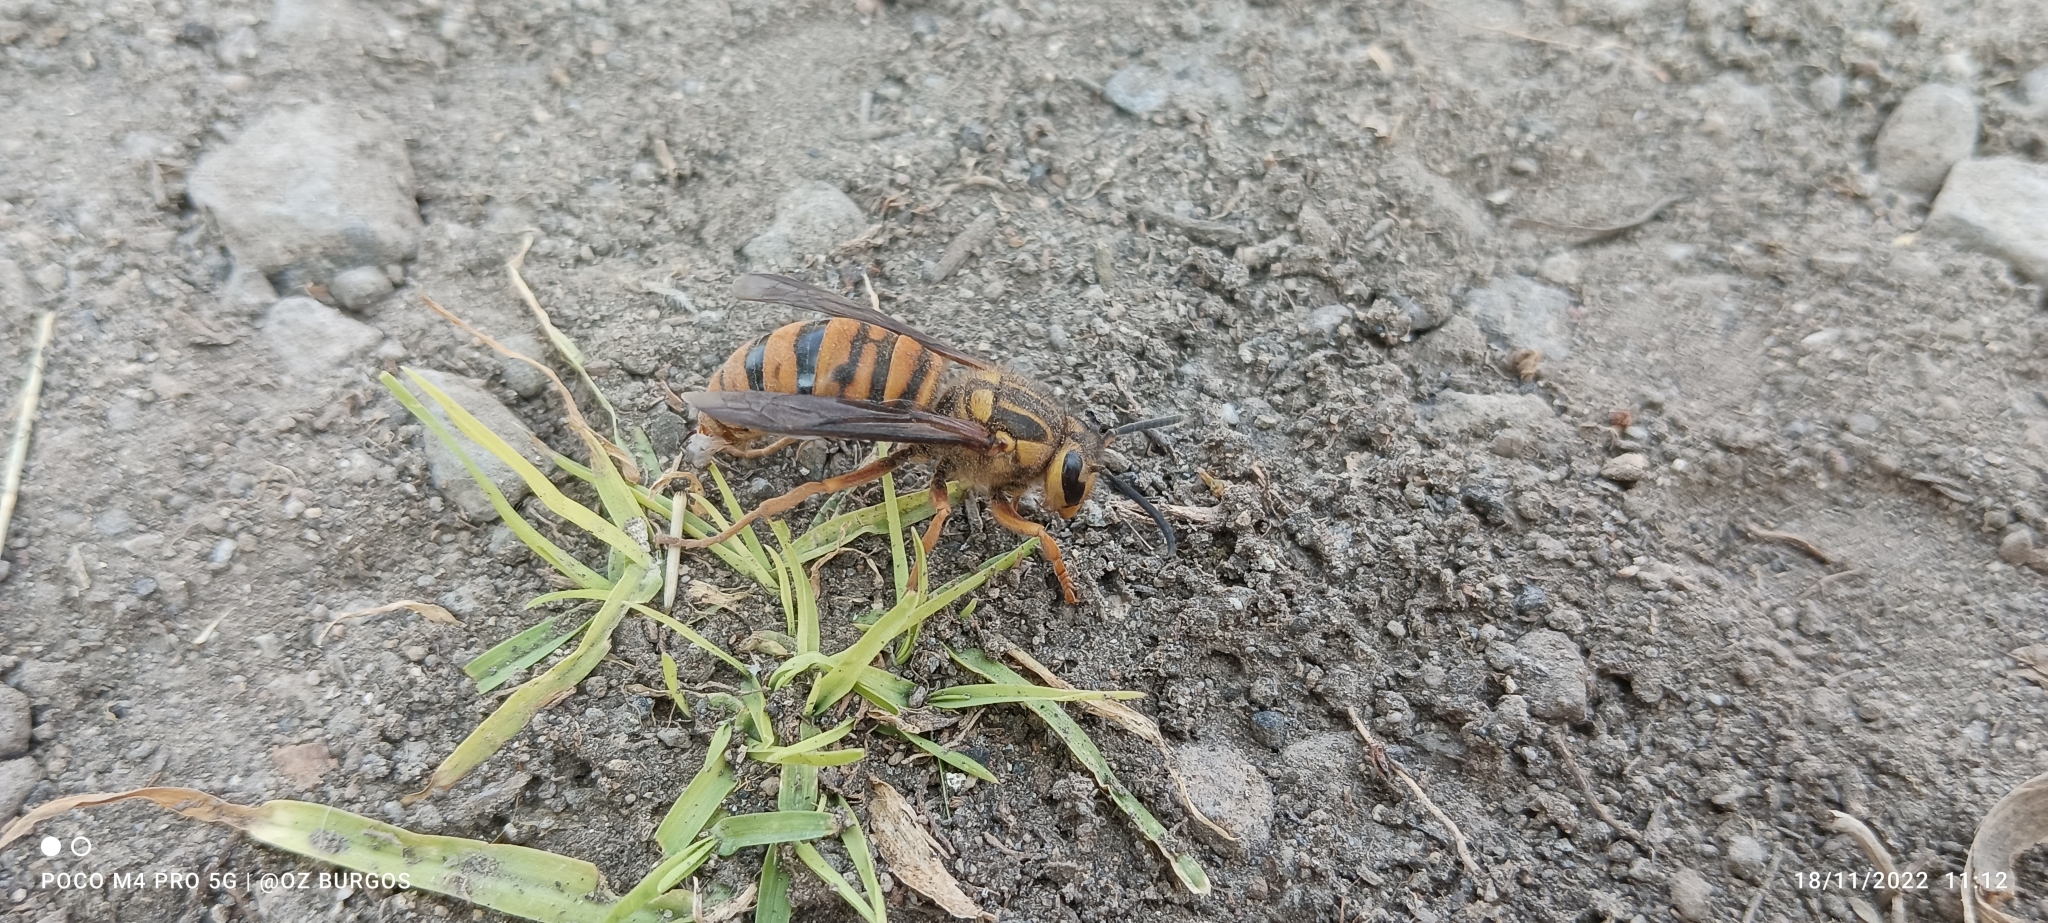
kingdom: Animalia
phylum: Arthropoda
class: Insecta
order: Hymenoptera
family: Vespidae
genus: Vespula
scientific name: Vespula squamosa
